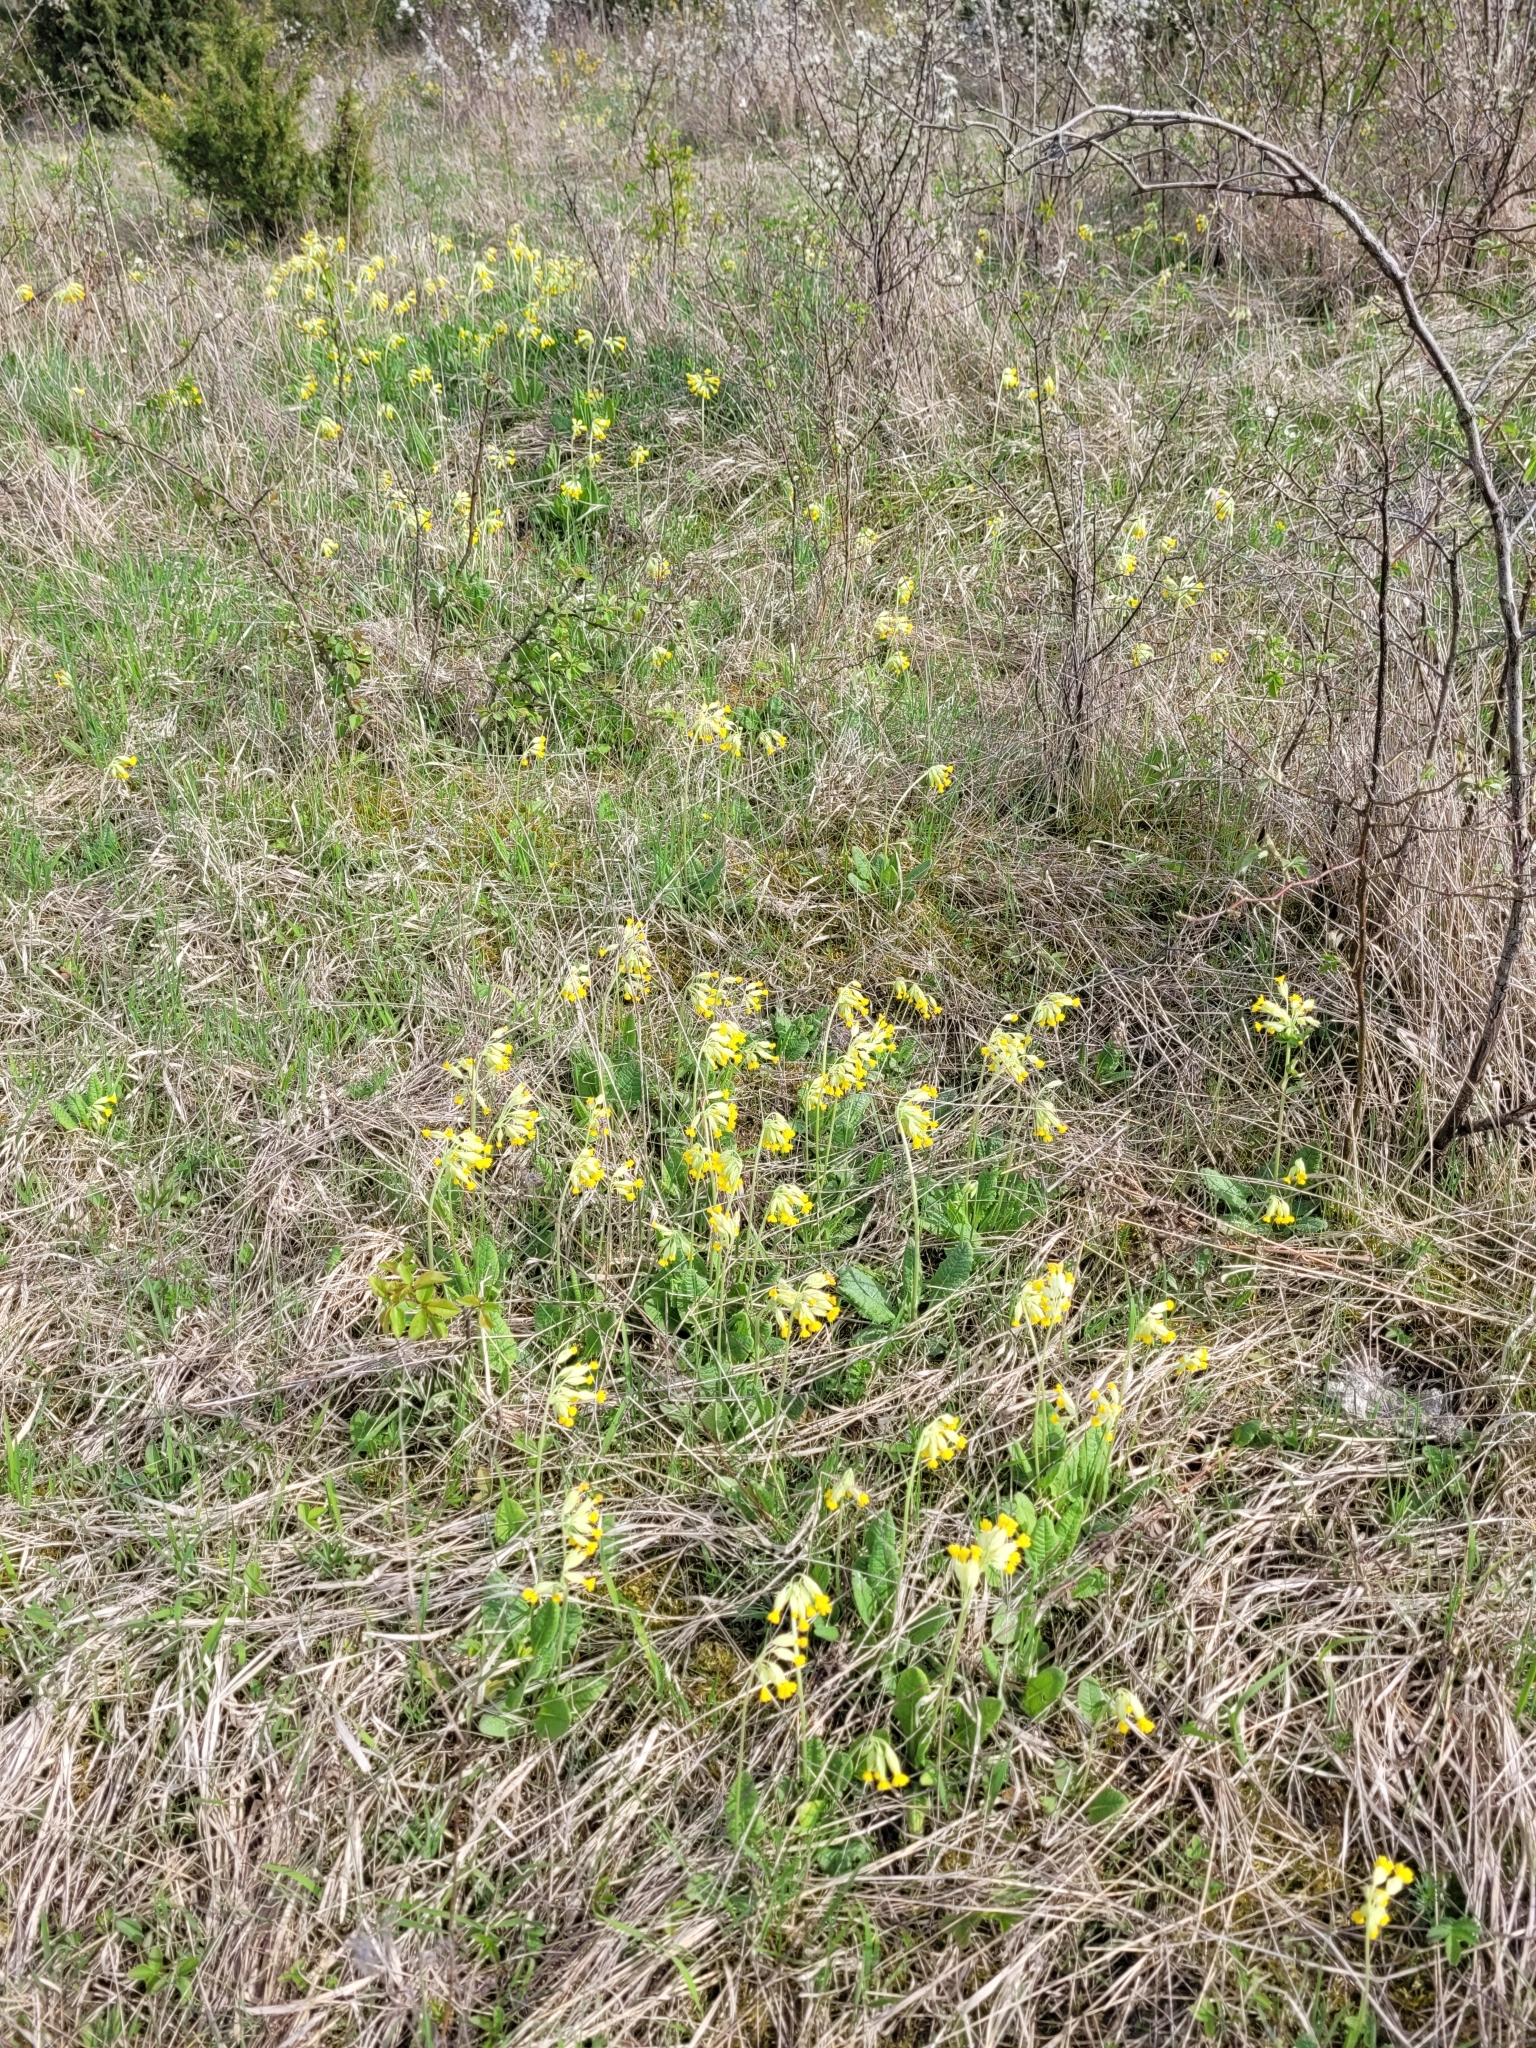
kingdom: Plantae
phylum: Tracheophyta
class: Magnoliopsida
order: Ericales
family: Primulaceae
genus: Primula
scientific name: Primula veris
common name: Cowslip
